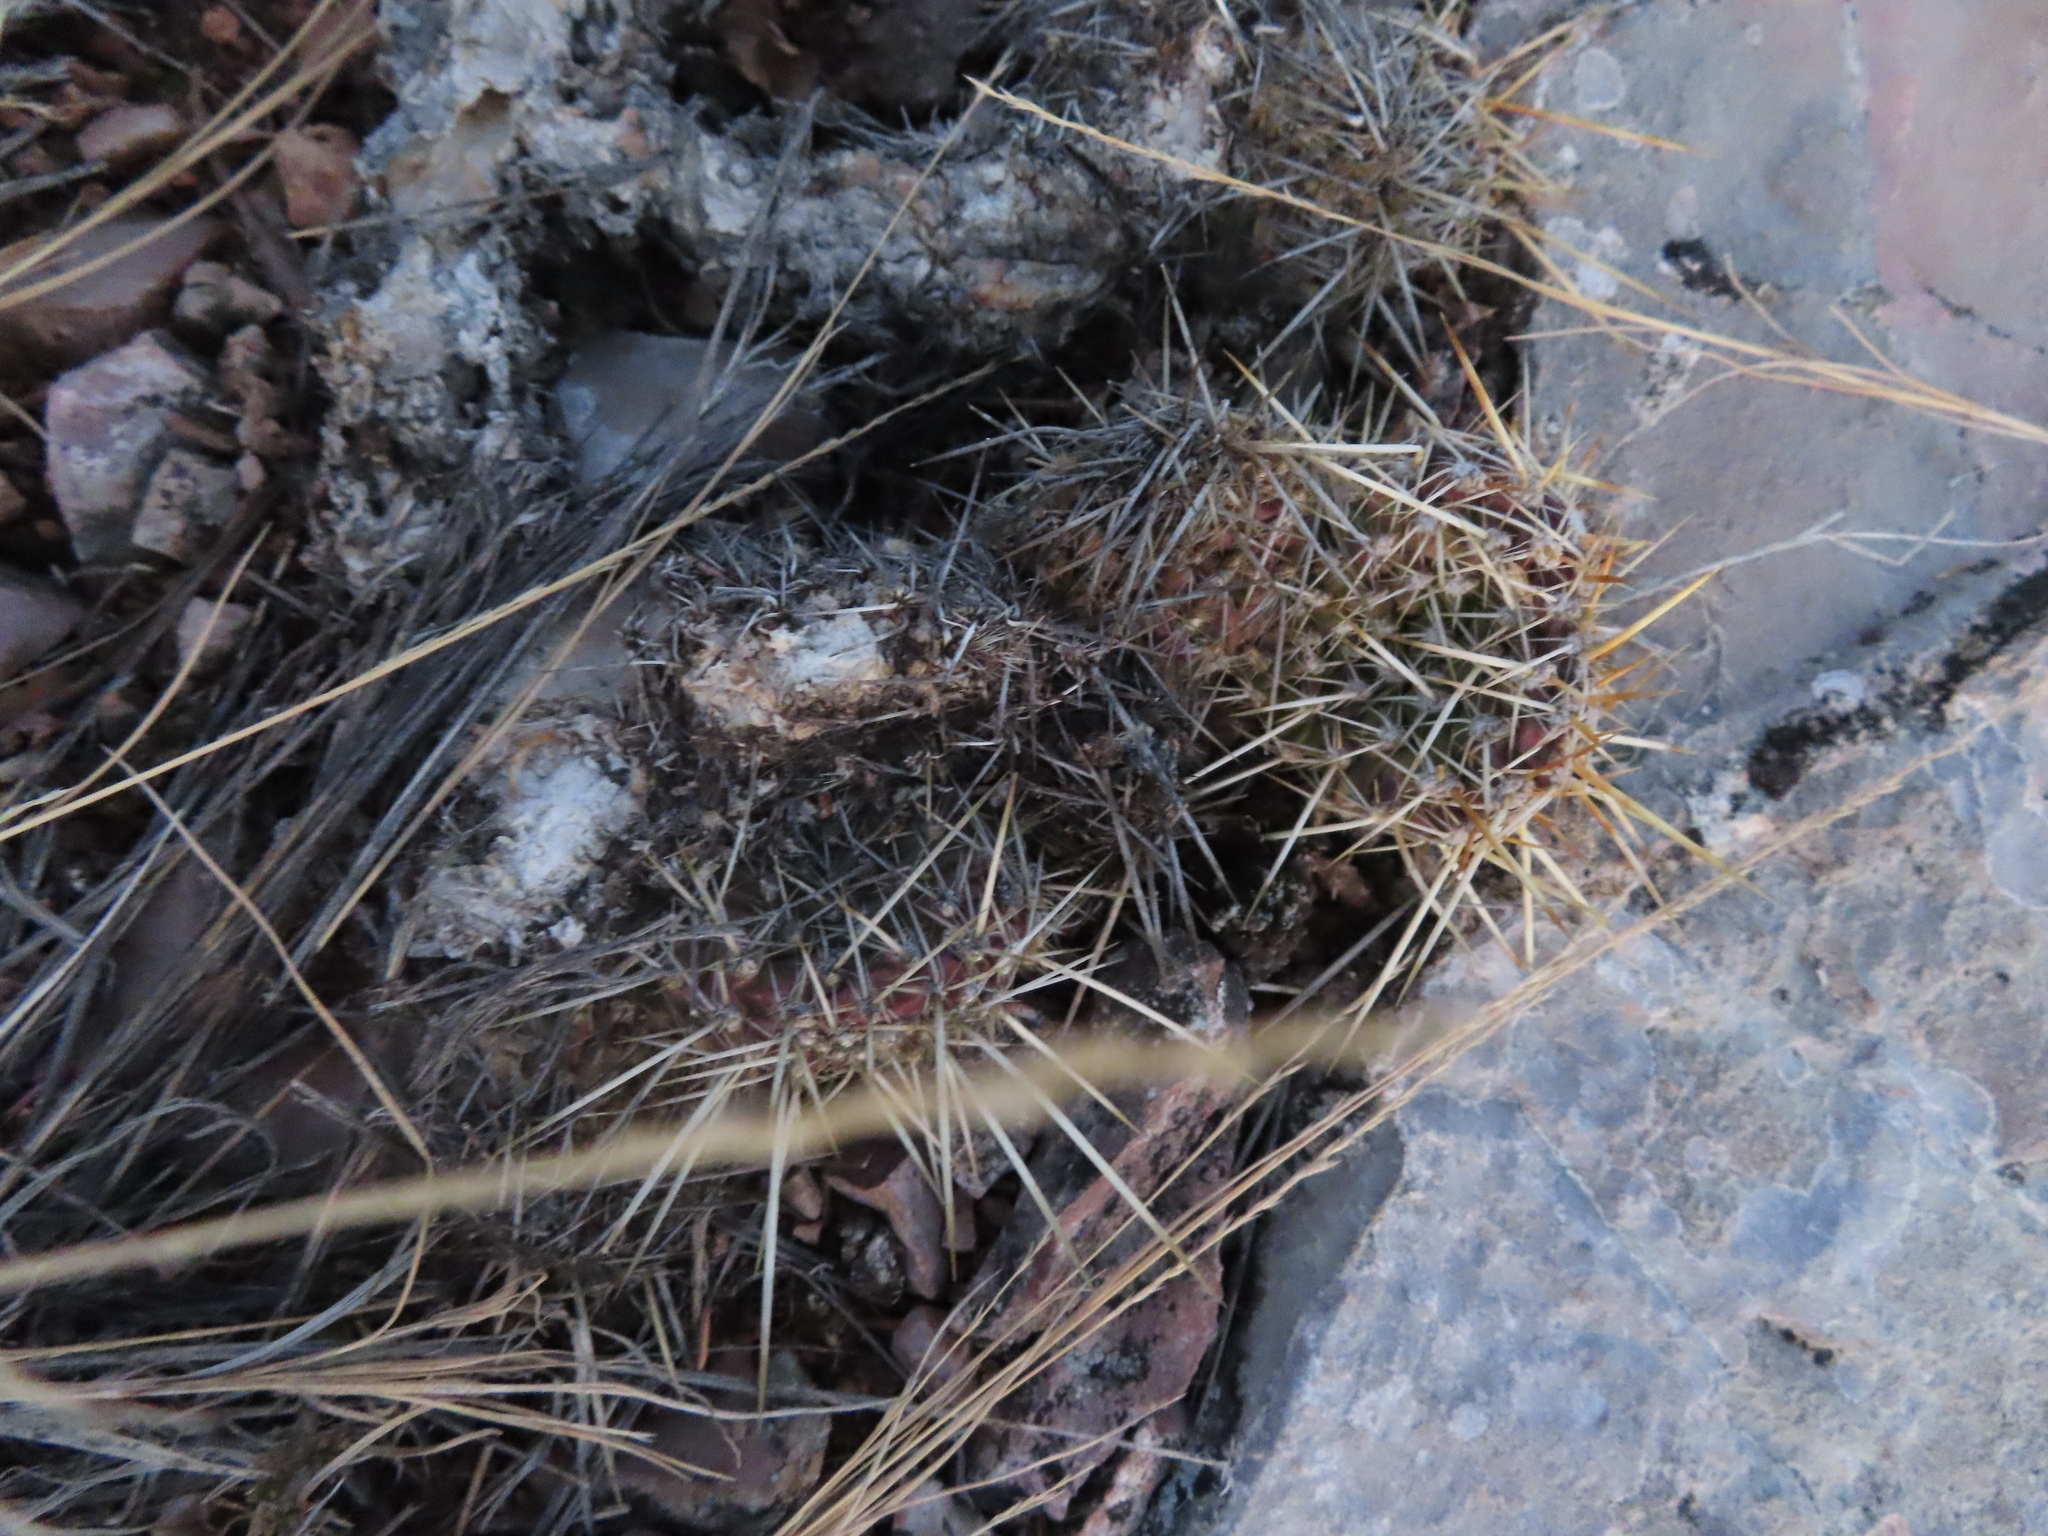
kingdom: Plantae
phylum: Tracheophyta
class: Magnoliopsida
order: Caryophyllales
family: Cactaceae
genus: Opuntia
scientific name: Opuntia polyacantha
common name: Plains prickly-pear
